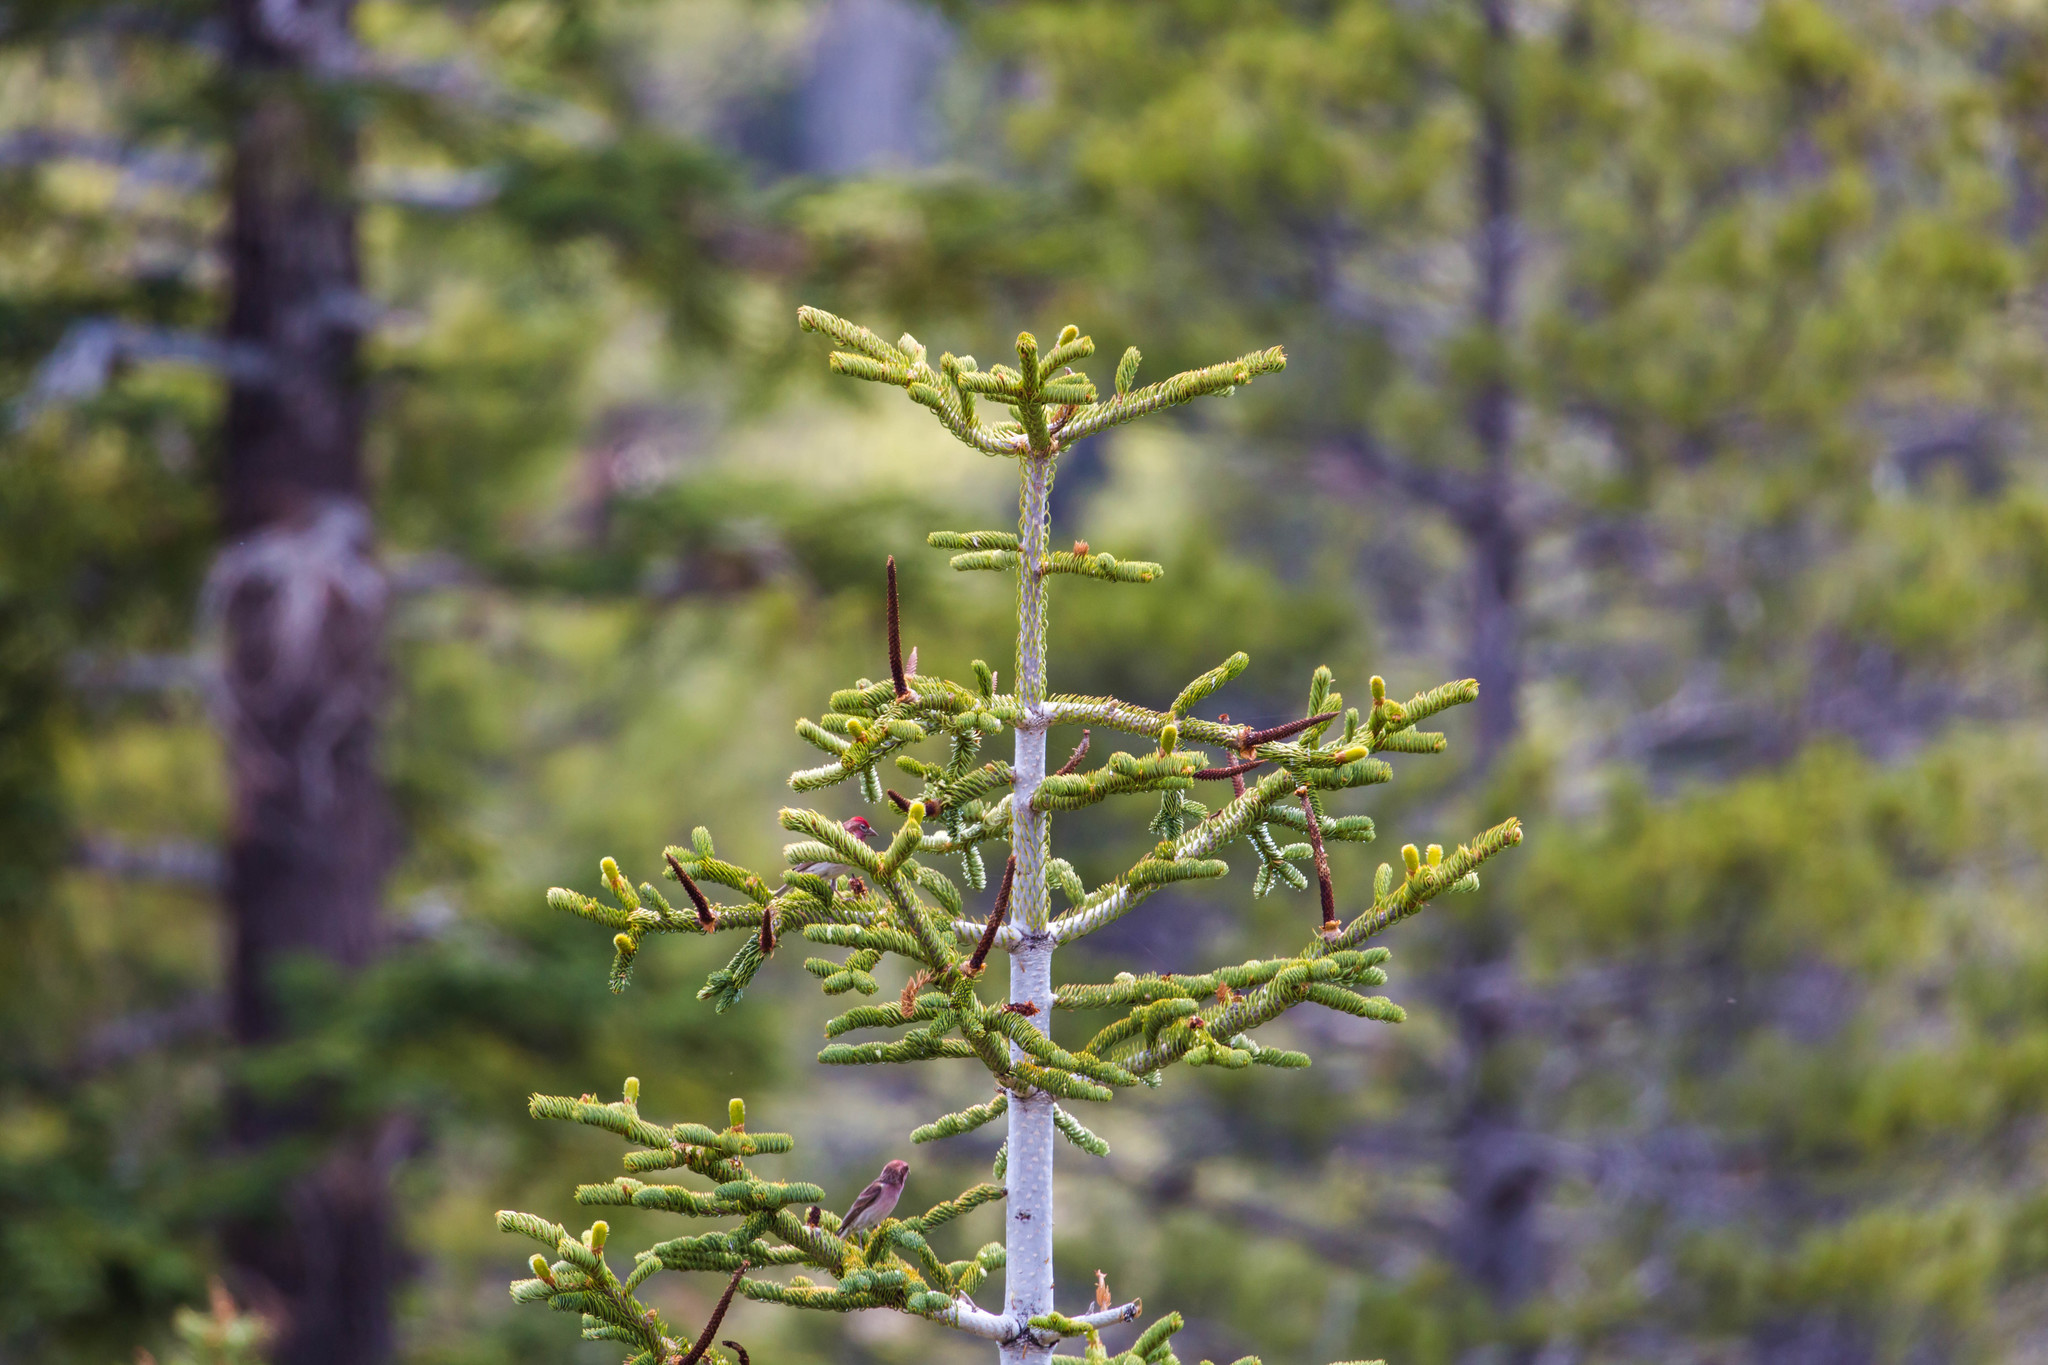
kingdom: Plantae
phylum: Tracheophyta
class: Pinopsida
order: Pinales
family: Pinaceae
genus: Abies
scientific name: Abies magnifica bis
